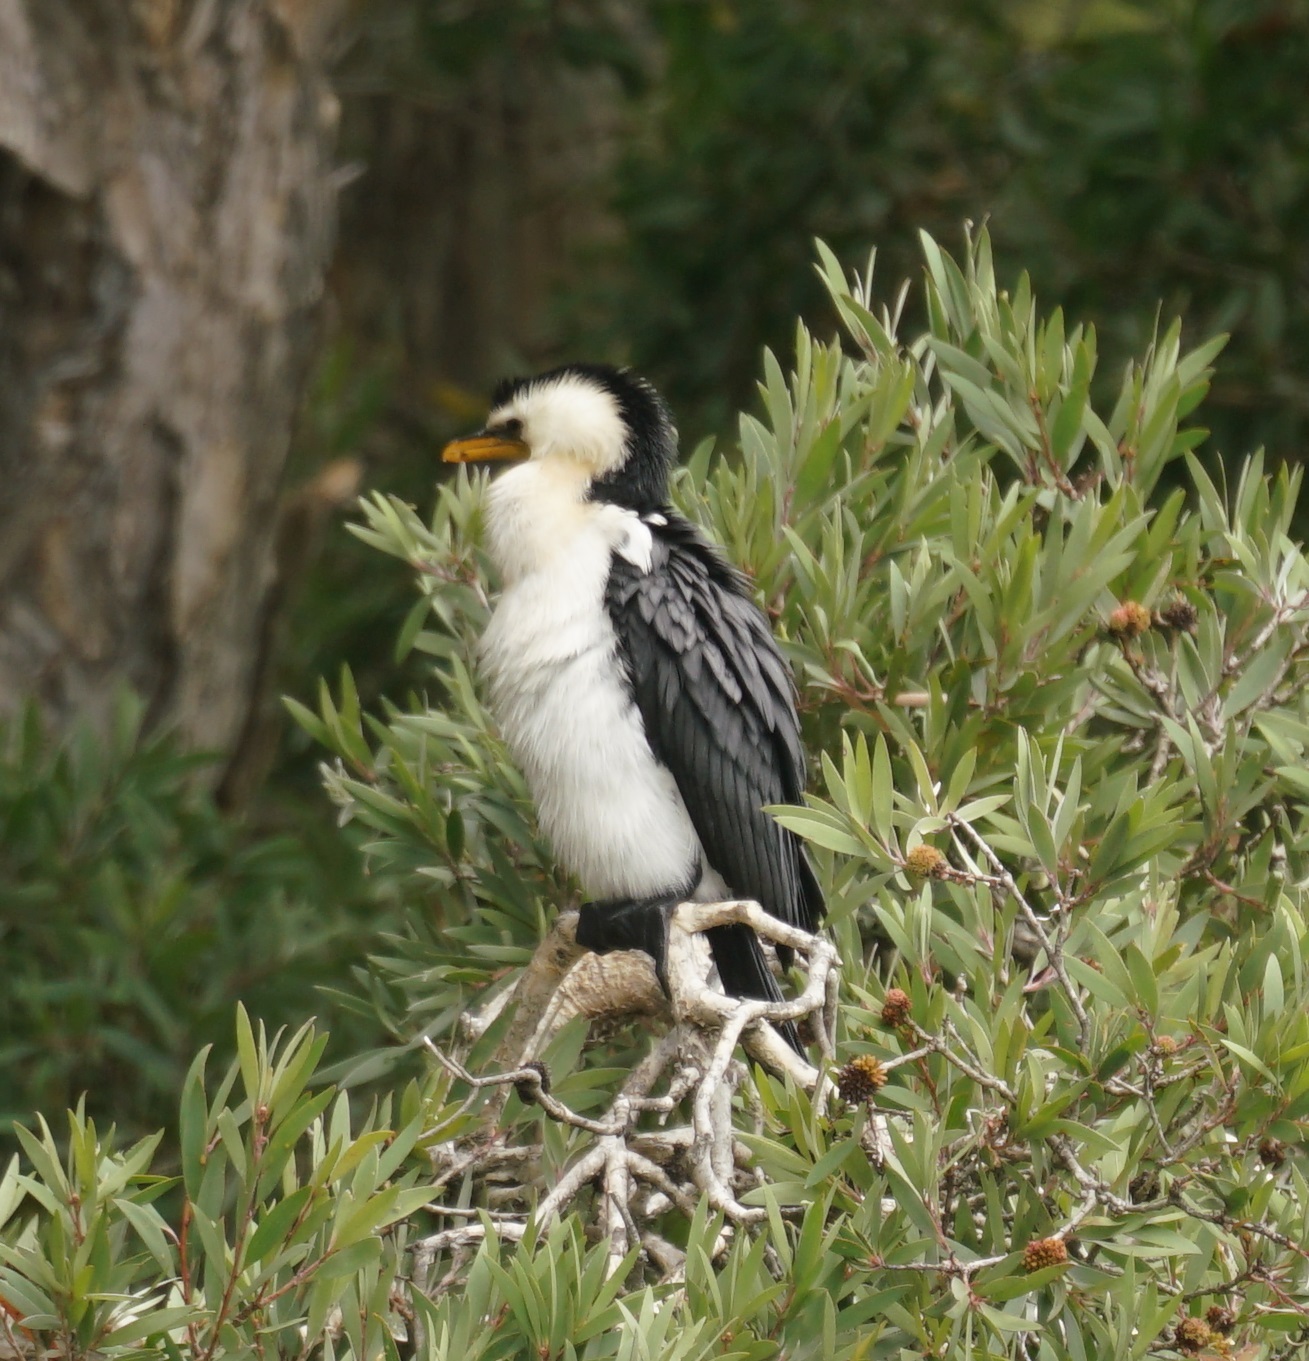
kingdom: Animalia
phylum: Chordata
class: Aves
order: Suliformes
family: Phalacrocoracidae
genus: Microcarbo
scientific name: Microcarbo melanoleucos
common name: Little pied cormorant
